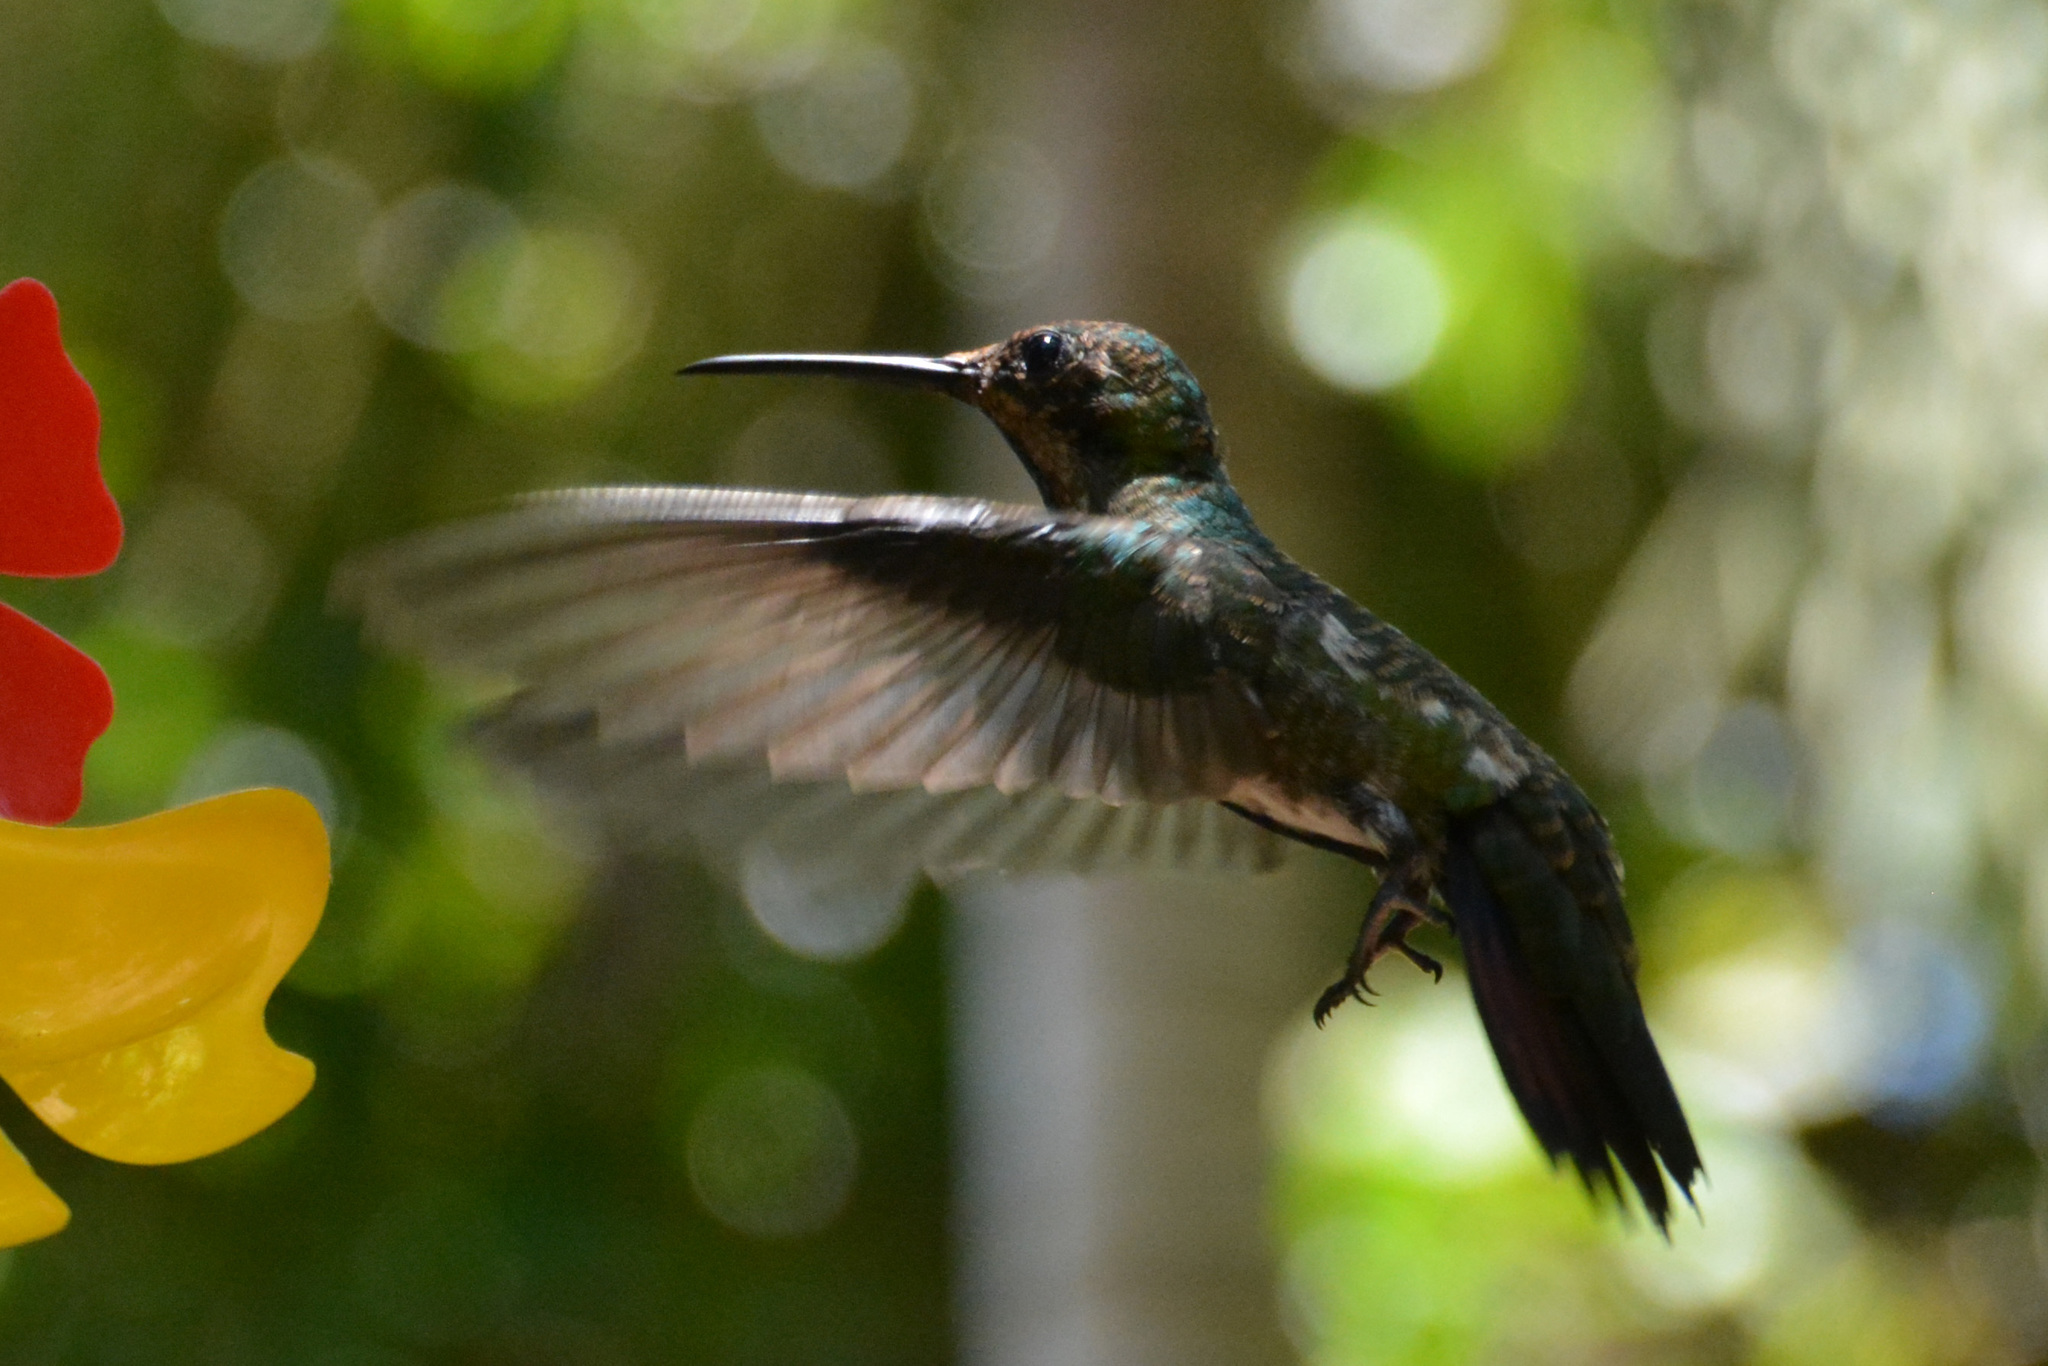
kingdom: Animalia
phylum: Chordata
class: Aves
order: Apodiformes
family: Trochilidae
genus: Anthracothorax
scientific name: Anthracothorax nigricollis
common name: Black-throated mango
